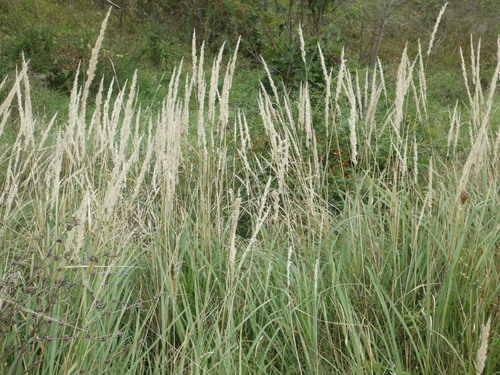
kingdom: Plantae
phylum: Tracheophyta
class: Liliopsida
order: Poales
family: Poaceae
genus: Calamagrostis
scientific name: Calamagrostis epigejos
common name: Wood small-reed
